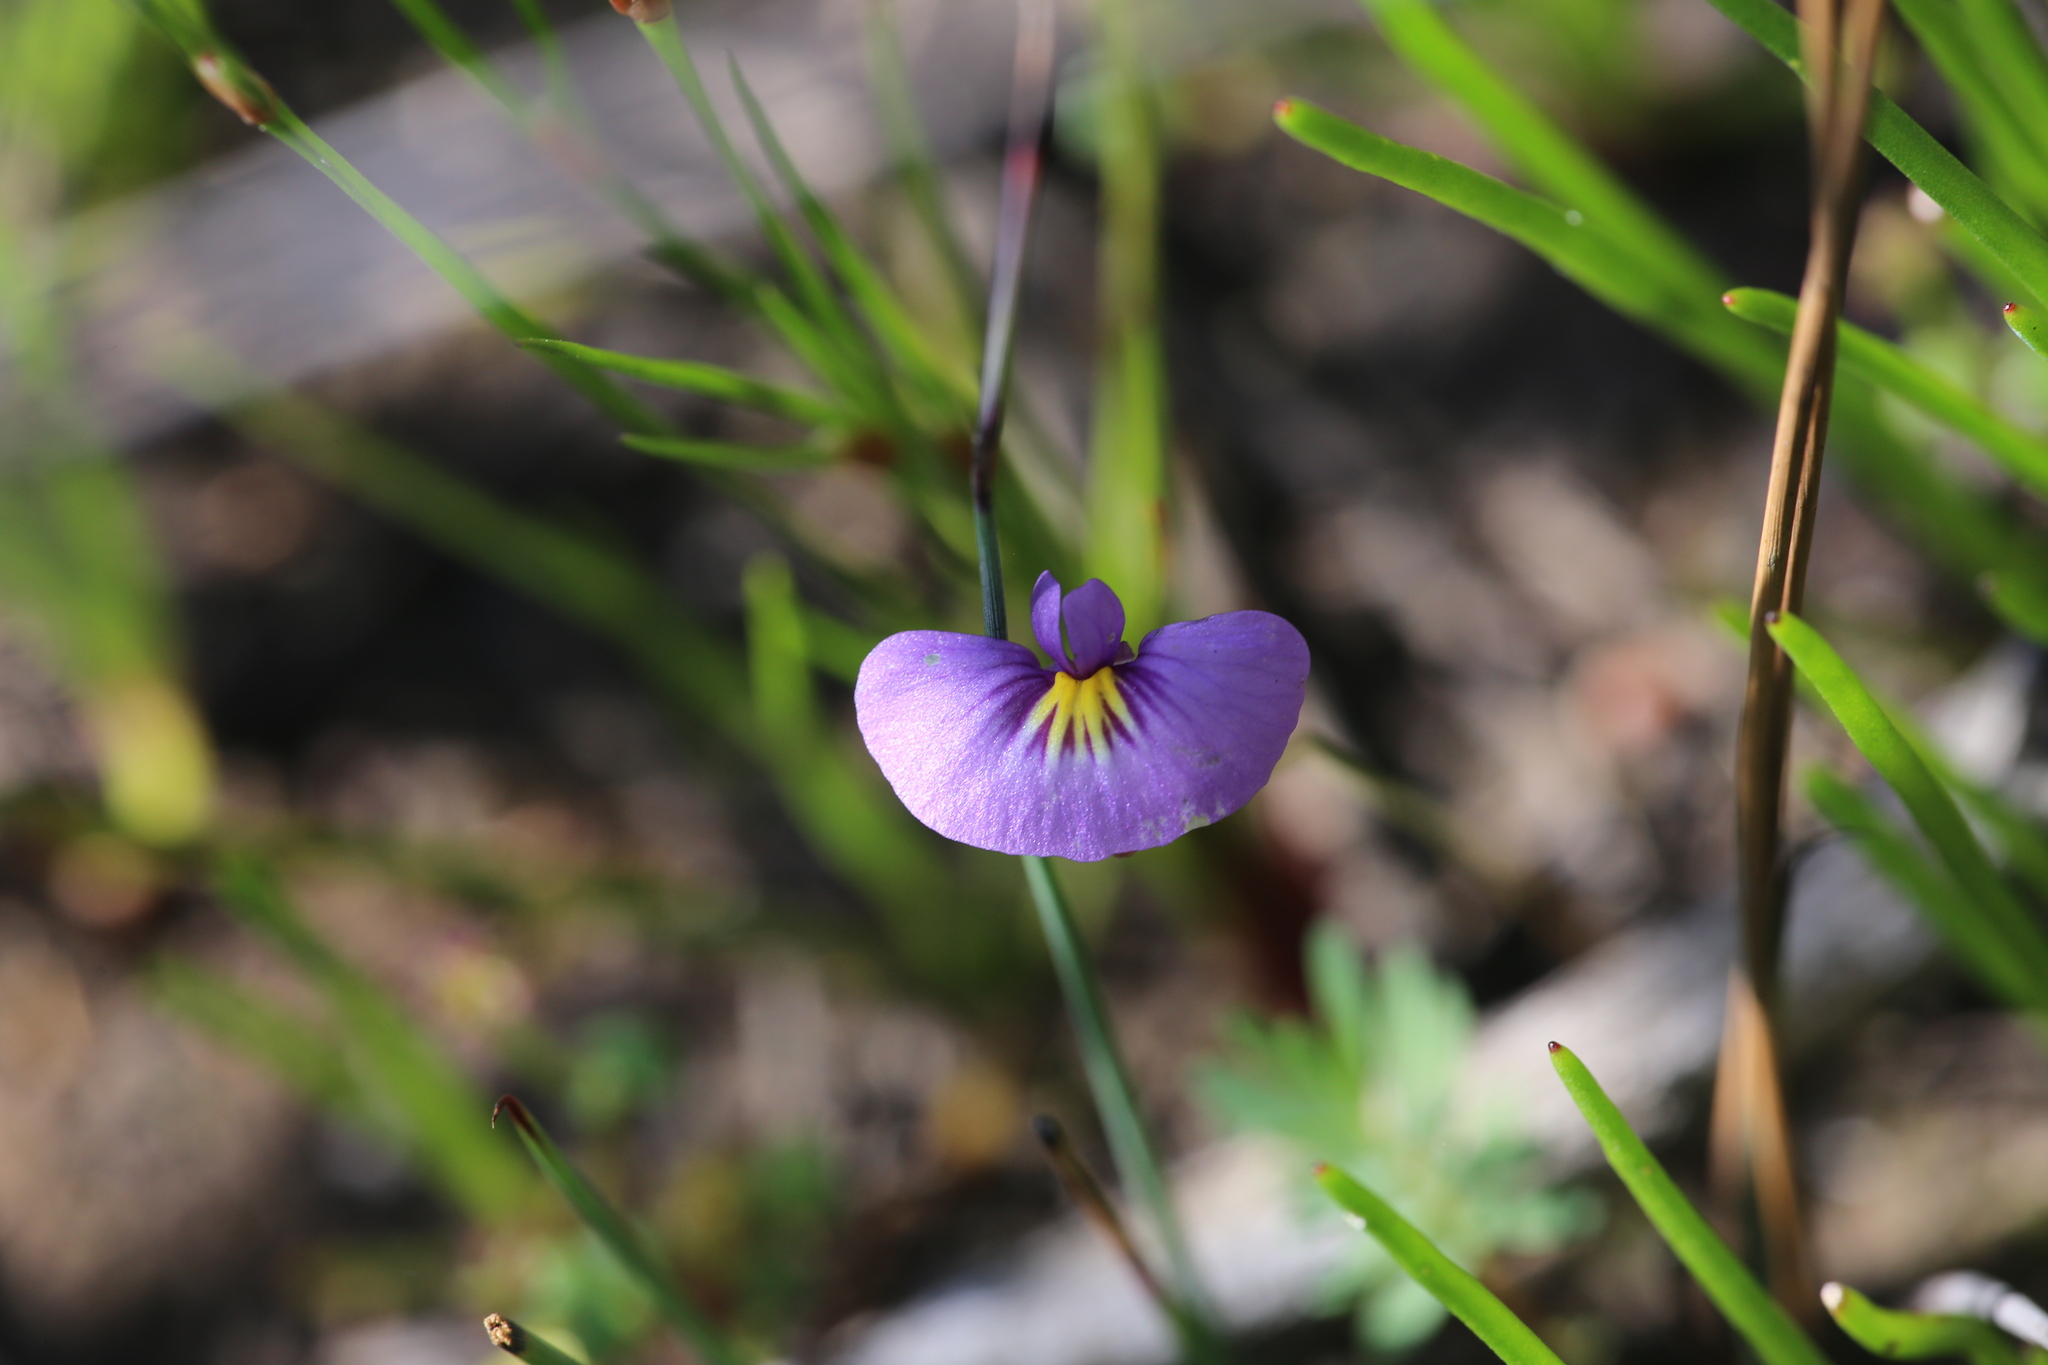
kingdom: Plantae
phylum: Tracheophyta
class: Magnoliopsida
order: Lamiales
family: Lentibulariaceae
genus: Utricularia
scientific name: Utricularia petertaylorii
